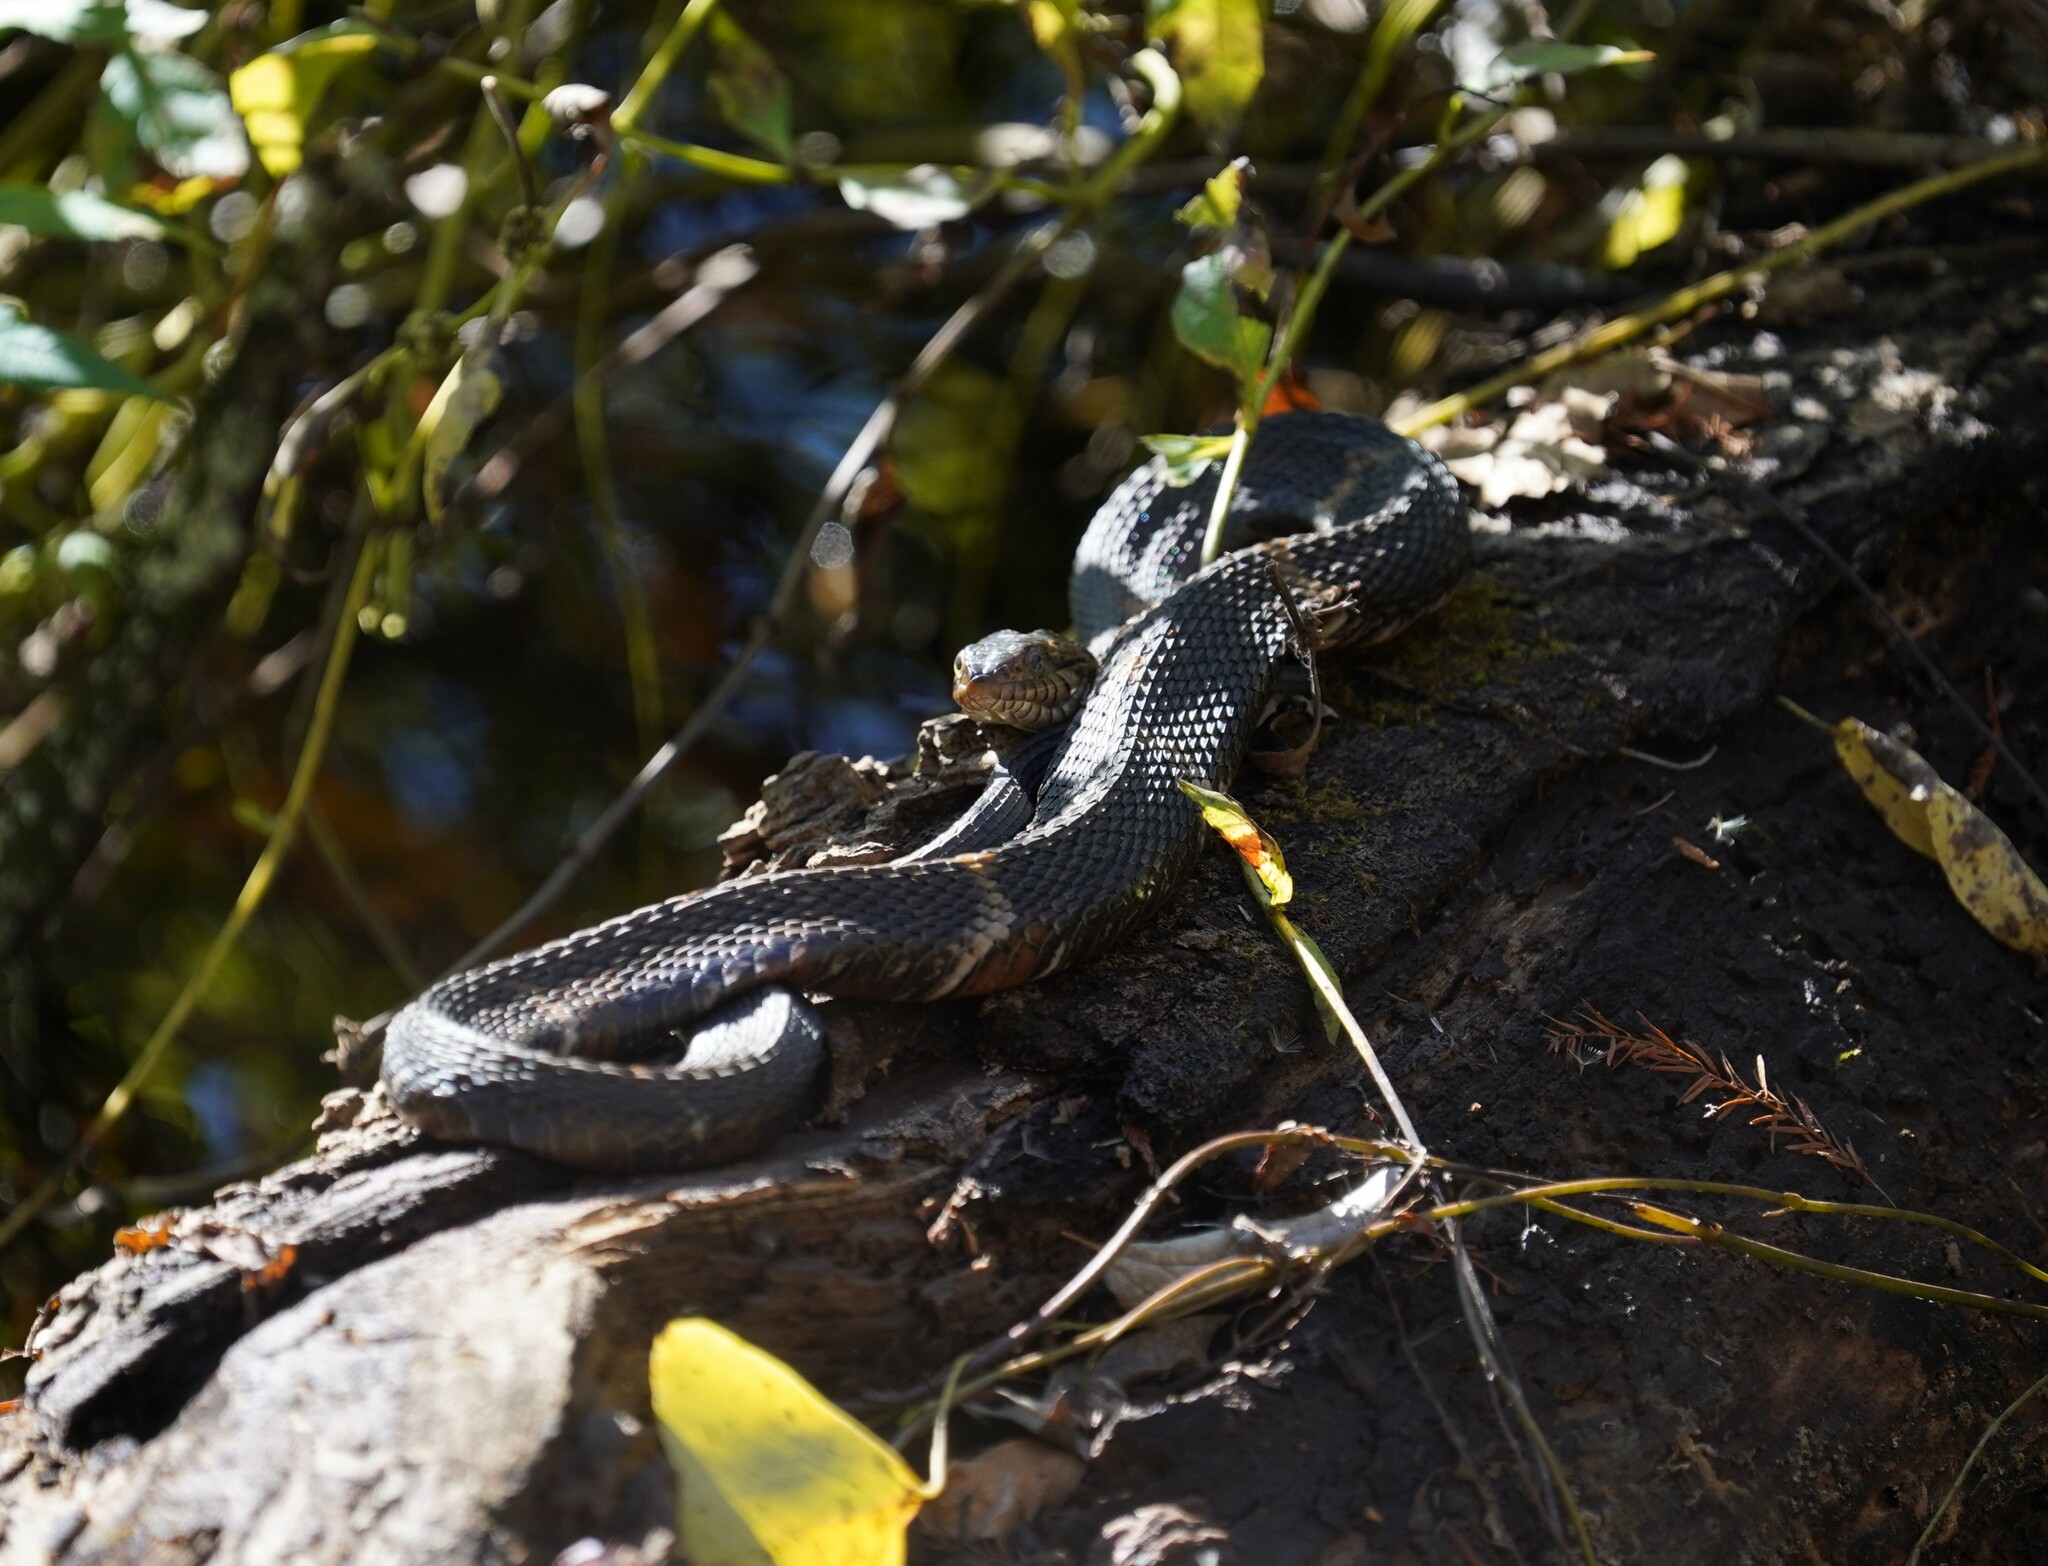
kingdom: Animalia
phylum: Chordata
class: Squamata
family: Colubridae
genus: Nerodia
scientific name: Nerodia fasciata
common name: Southern water snake
